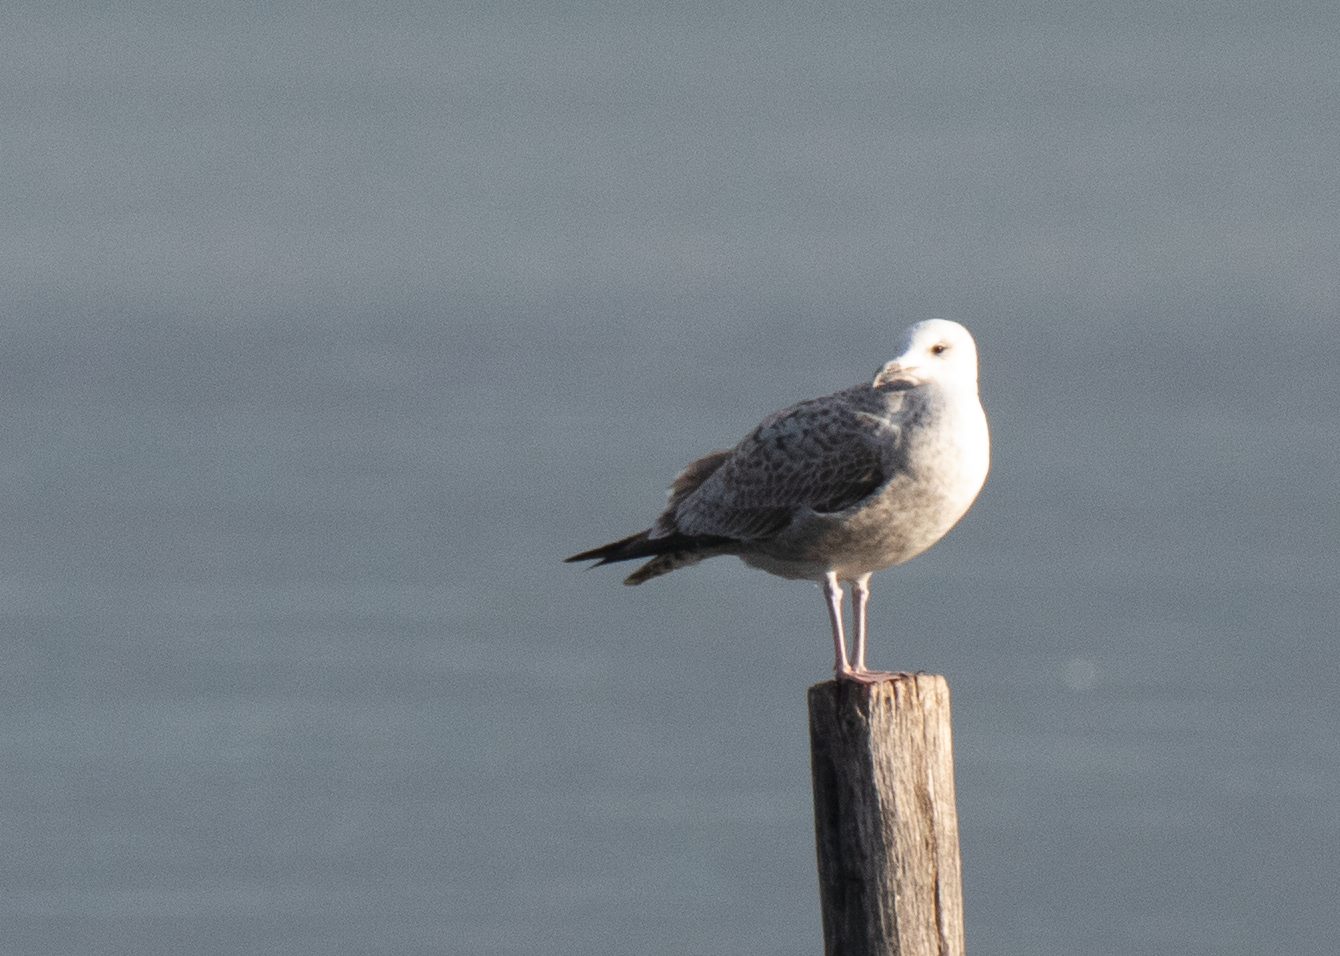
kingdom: Animalia
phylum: Chordata
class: Aves
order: Charadriiformes
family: Laridae
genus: Larus
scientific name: Larus cachinnans
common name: Caspian gull
